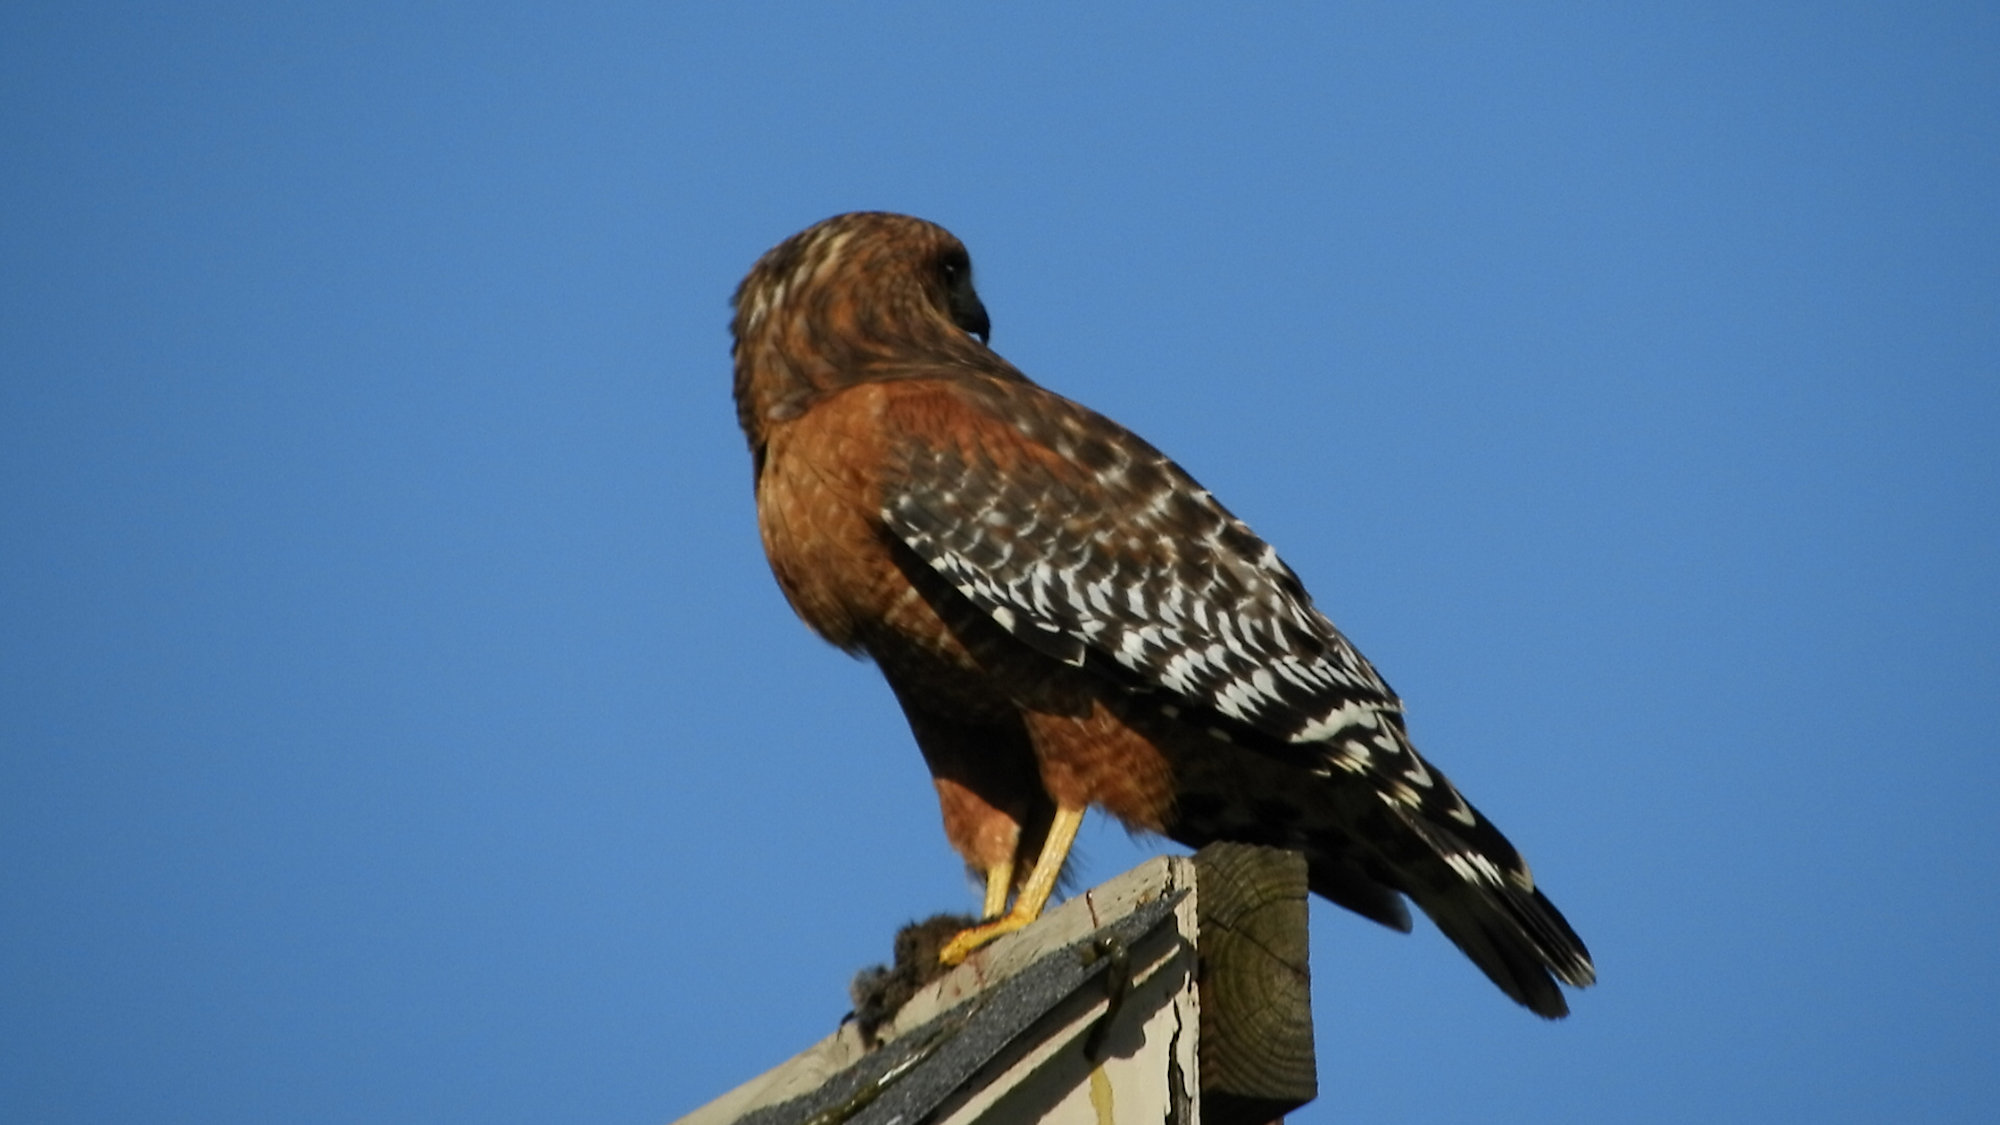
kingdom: Animalia
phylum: Chordata
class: Aves
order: Accipitriformes
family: Accipitridae
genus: Buteo
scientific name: Buteo lineatus
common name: Red-shouldered hawk
